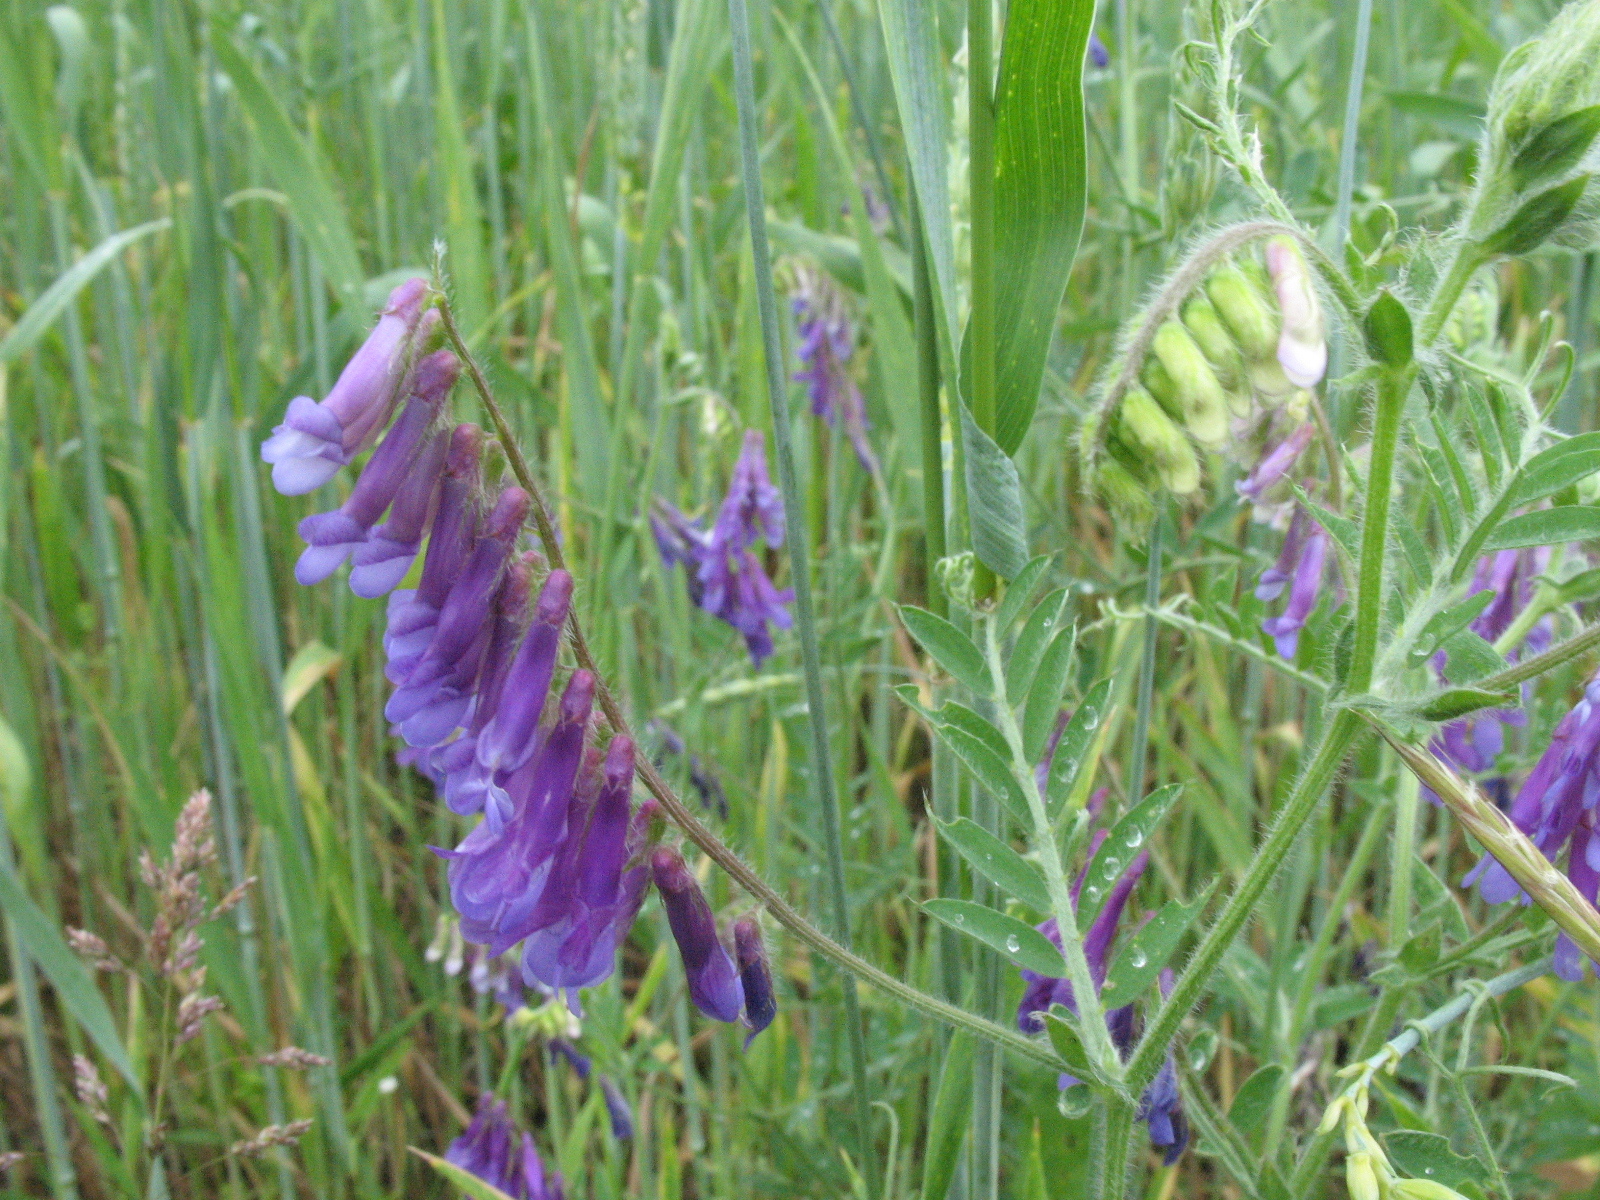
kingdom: Plantae
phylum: Tracheophyta
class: Magnoliopsida
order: Fabales
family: Fabaceae
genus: Vicia
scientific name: Vicia villosa
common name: Fodder vetch
